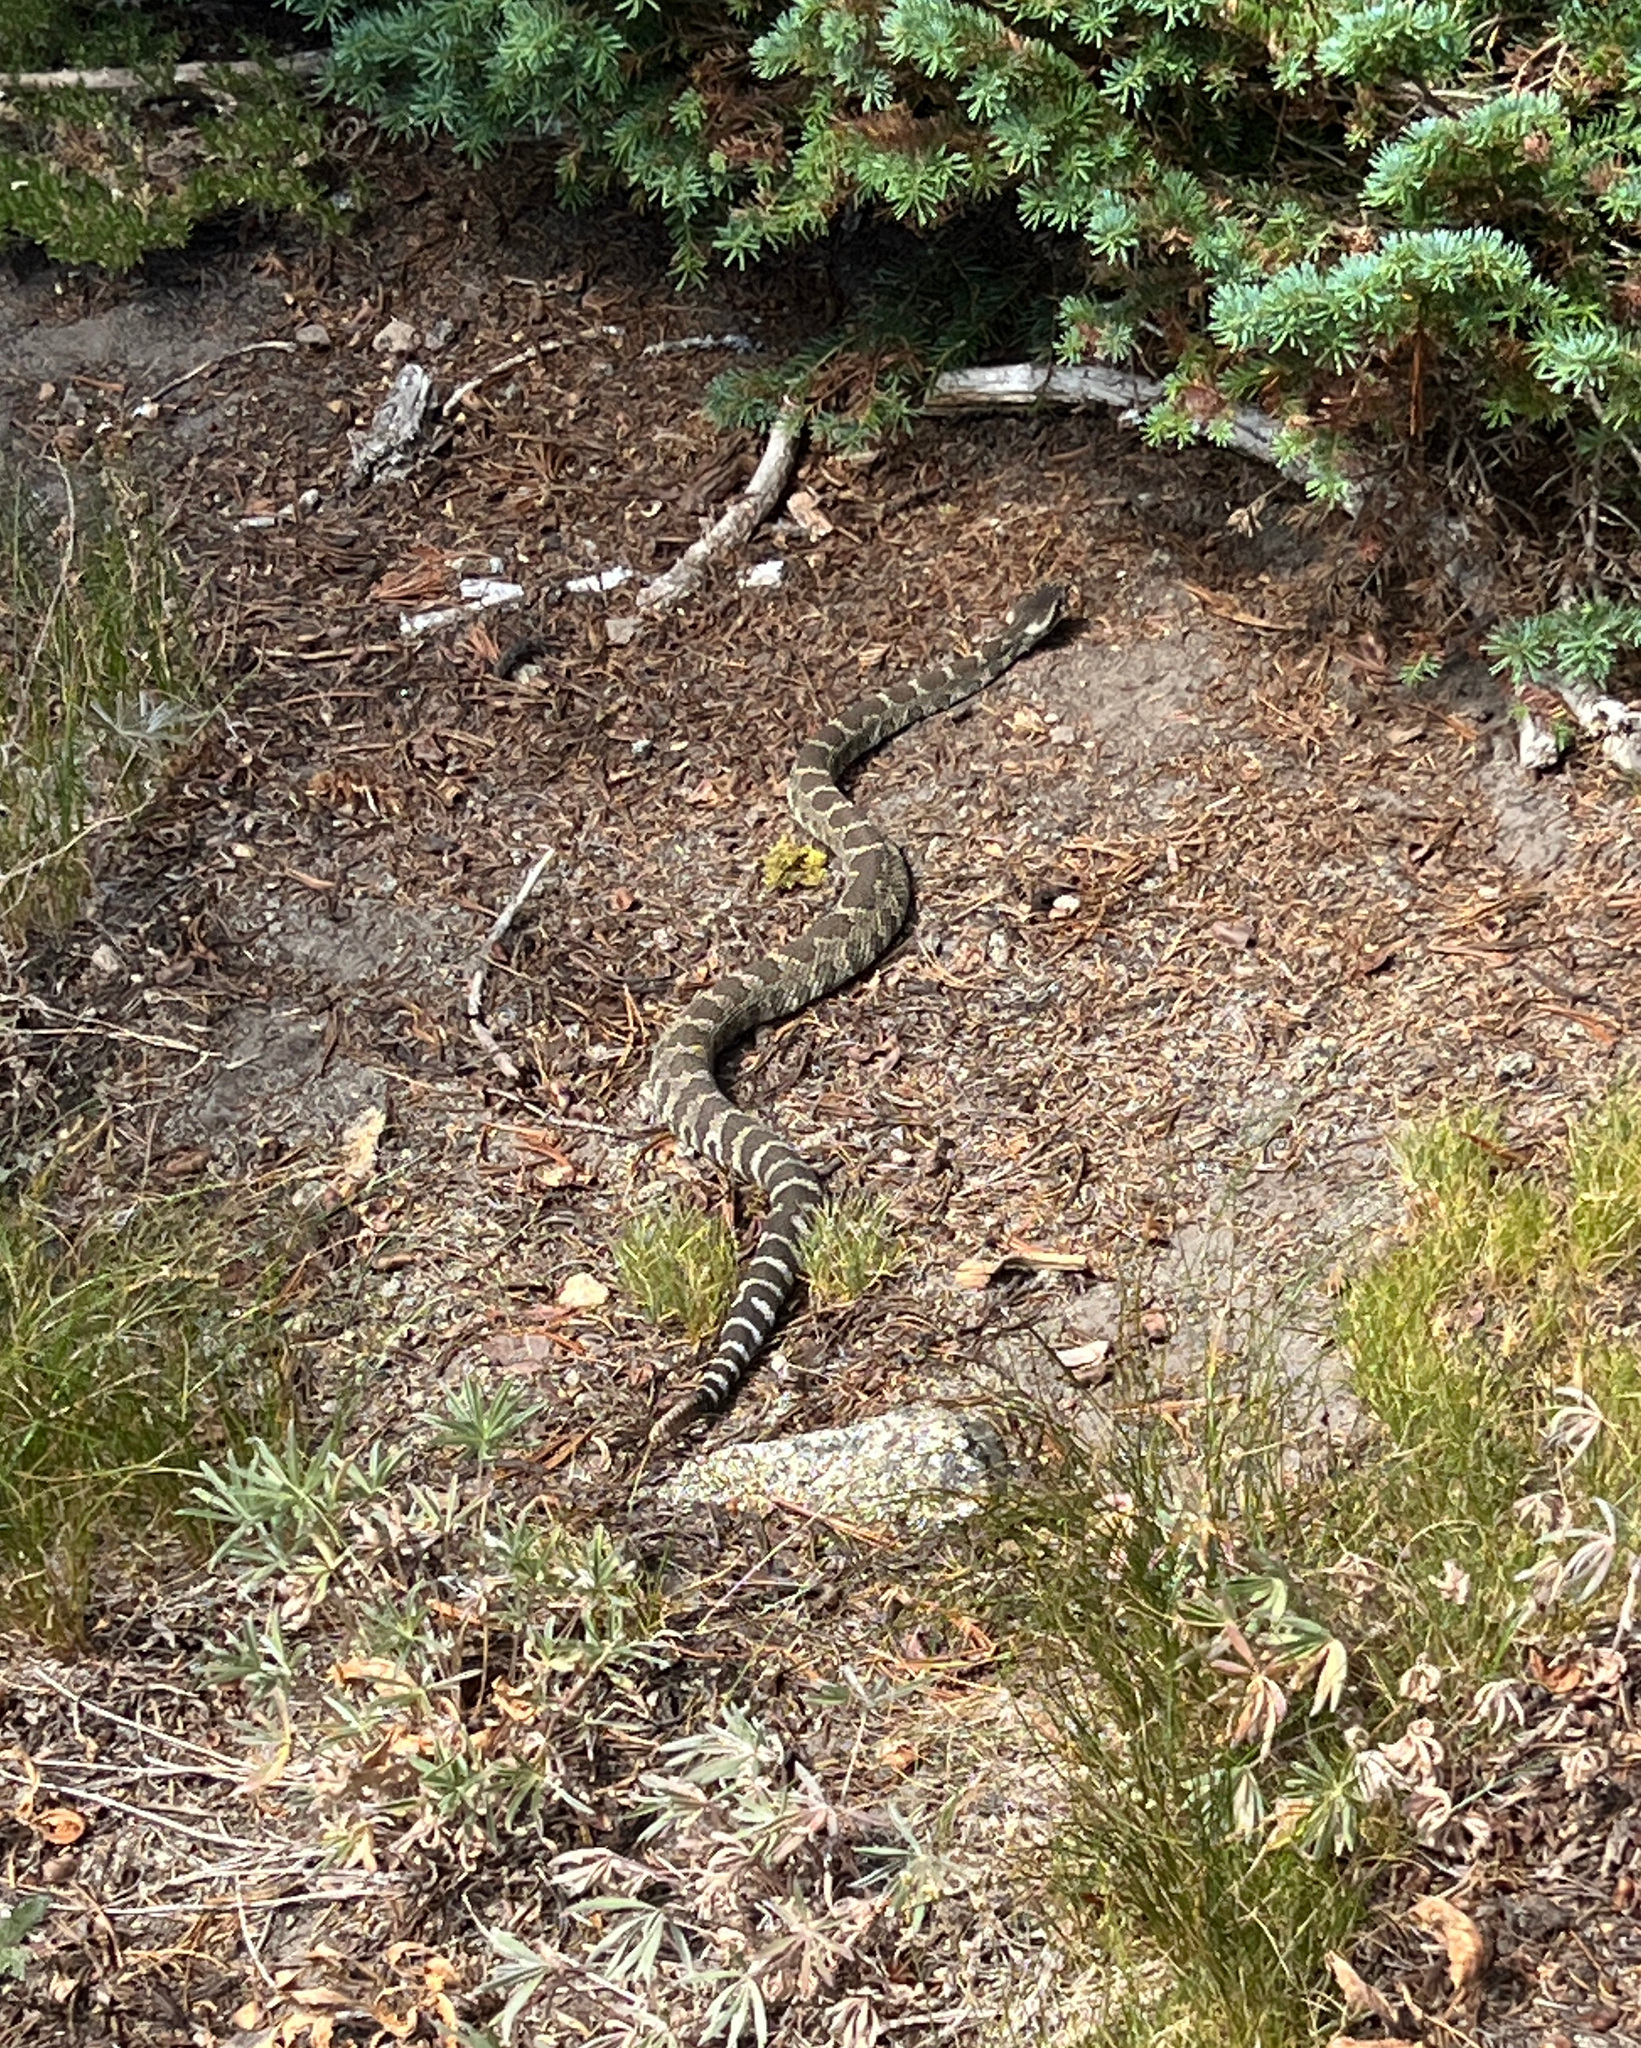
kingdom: Animalia
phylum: Chordata
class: Squamata
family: Viperidae
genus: Crotalus
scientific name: Crotalus oreganus
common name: Abyssus
